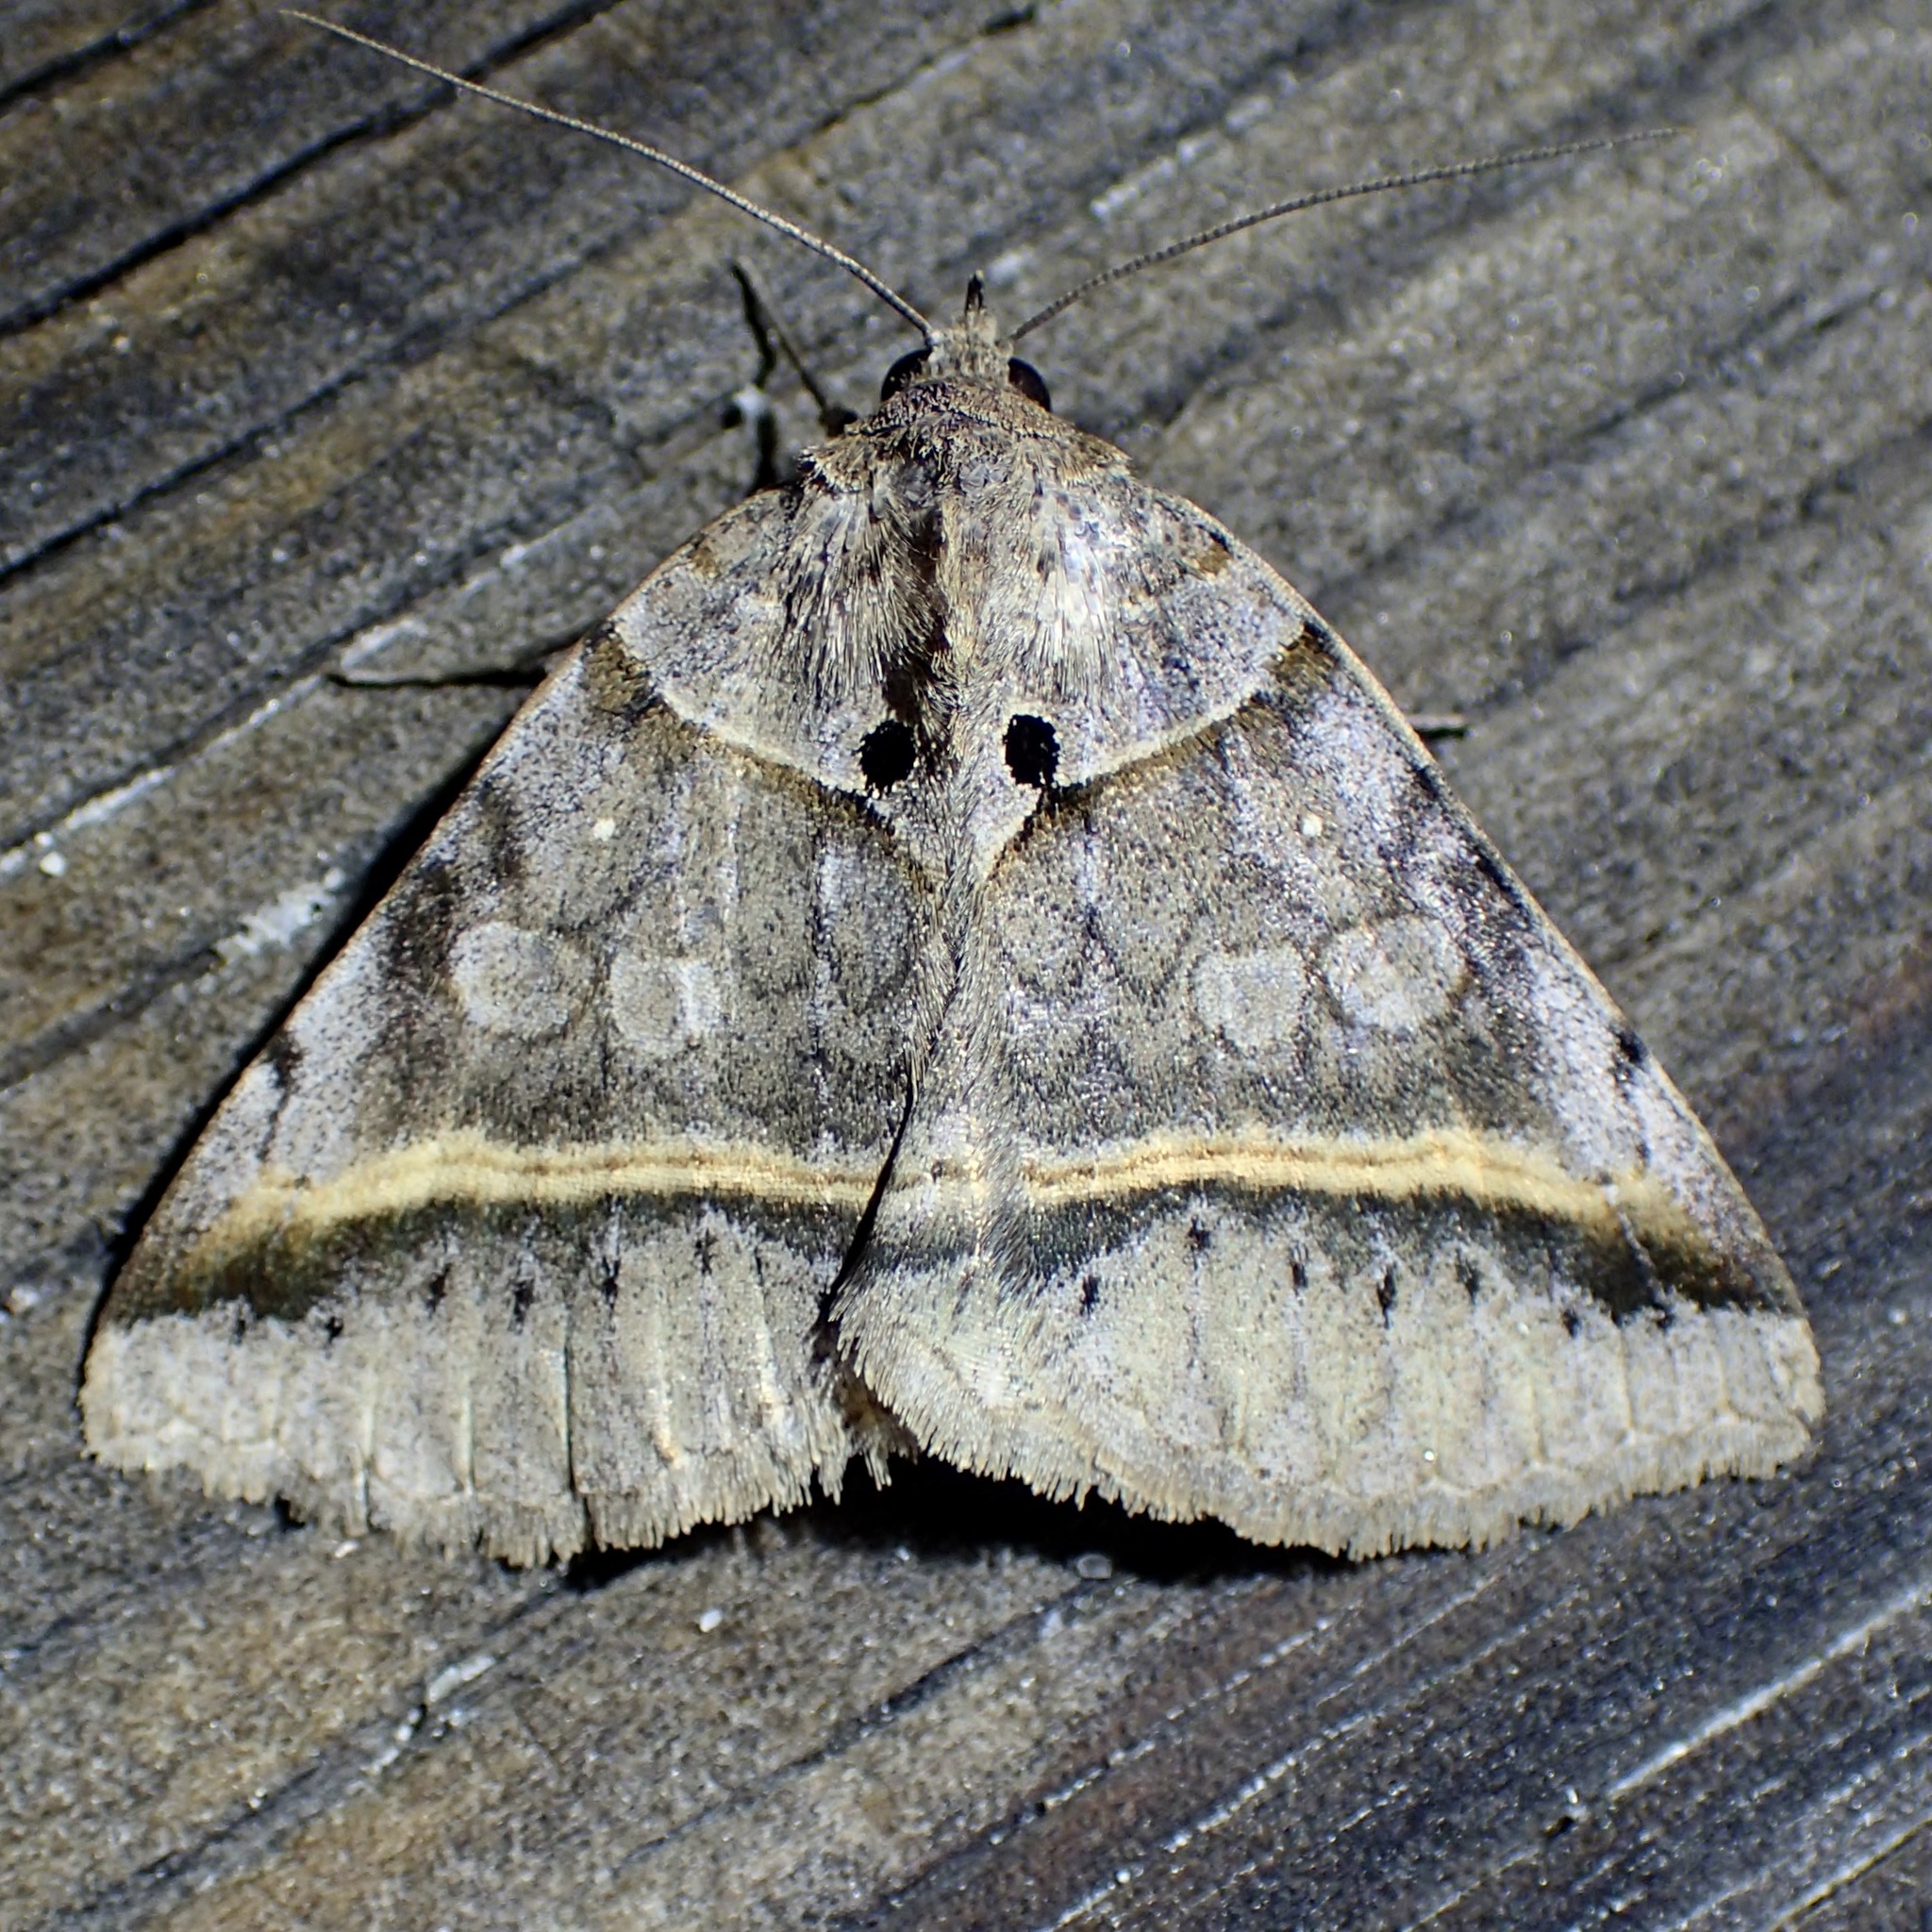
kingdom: Animalia
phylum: Arthropoda
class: Insecta
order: Lepidoptera
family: Erebidae
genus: Celiptera
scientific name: Celiptera valina
